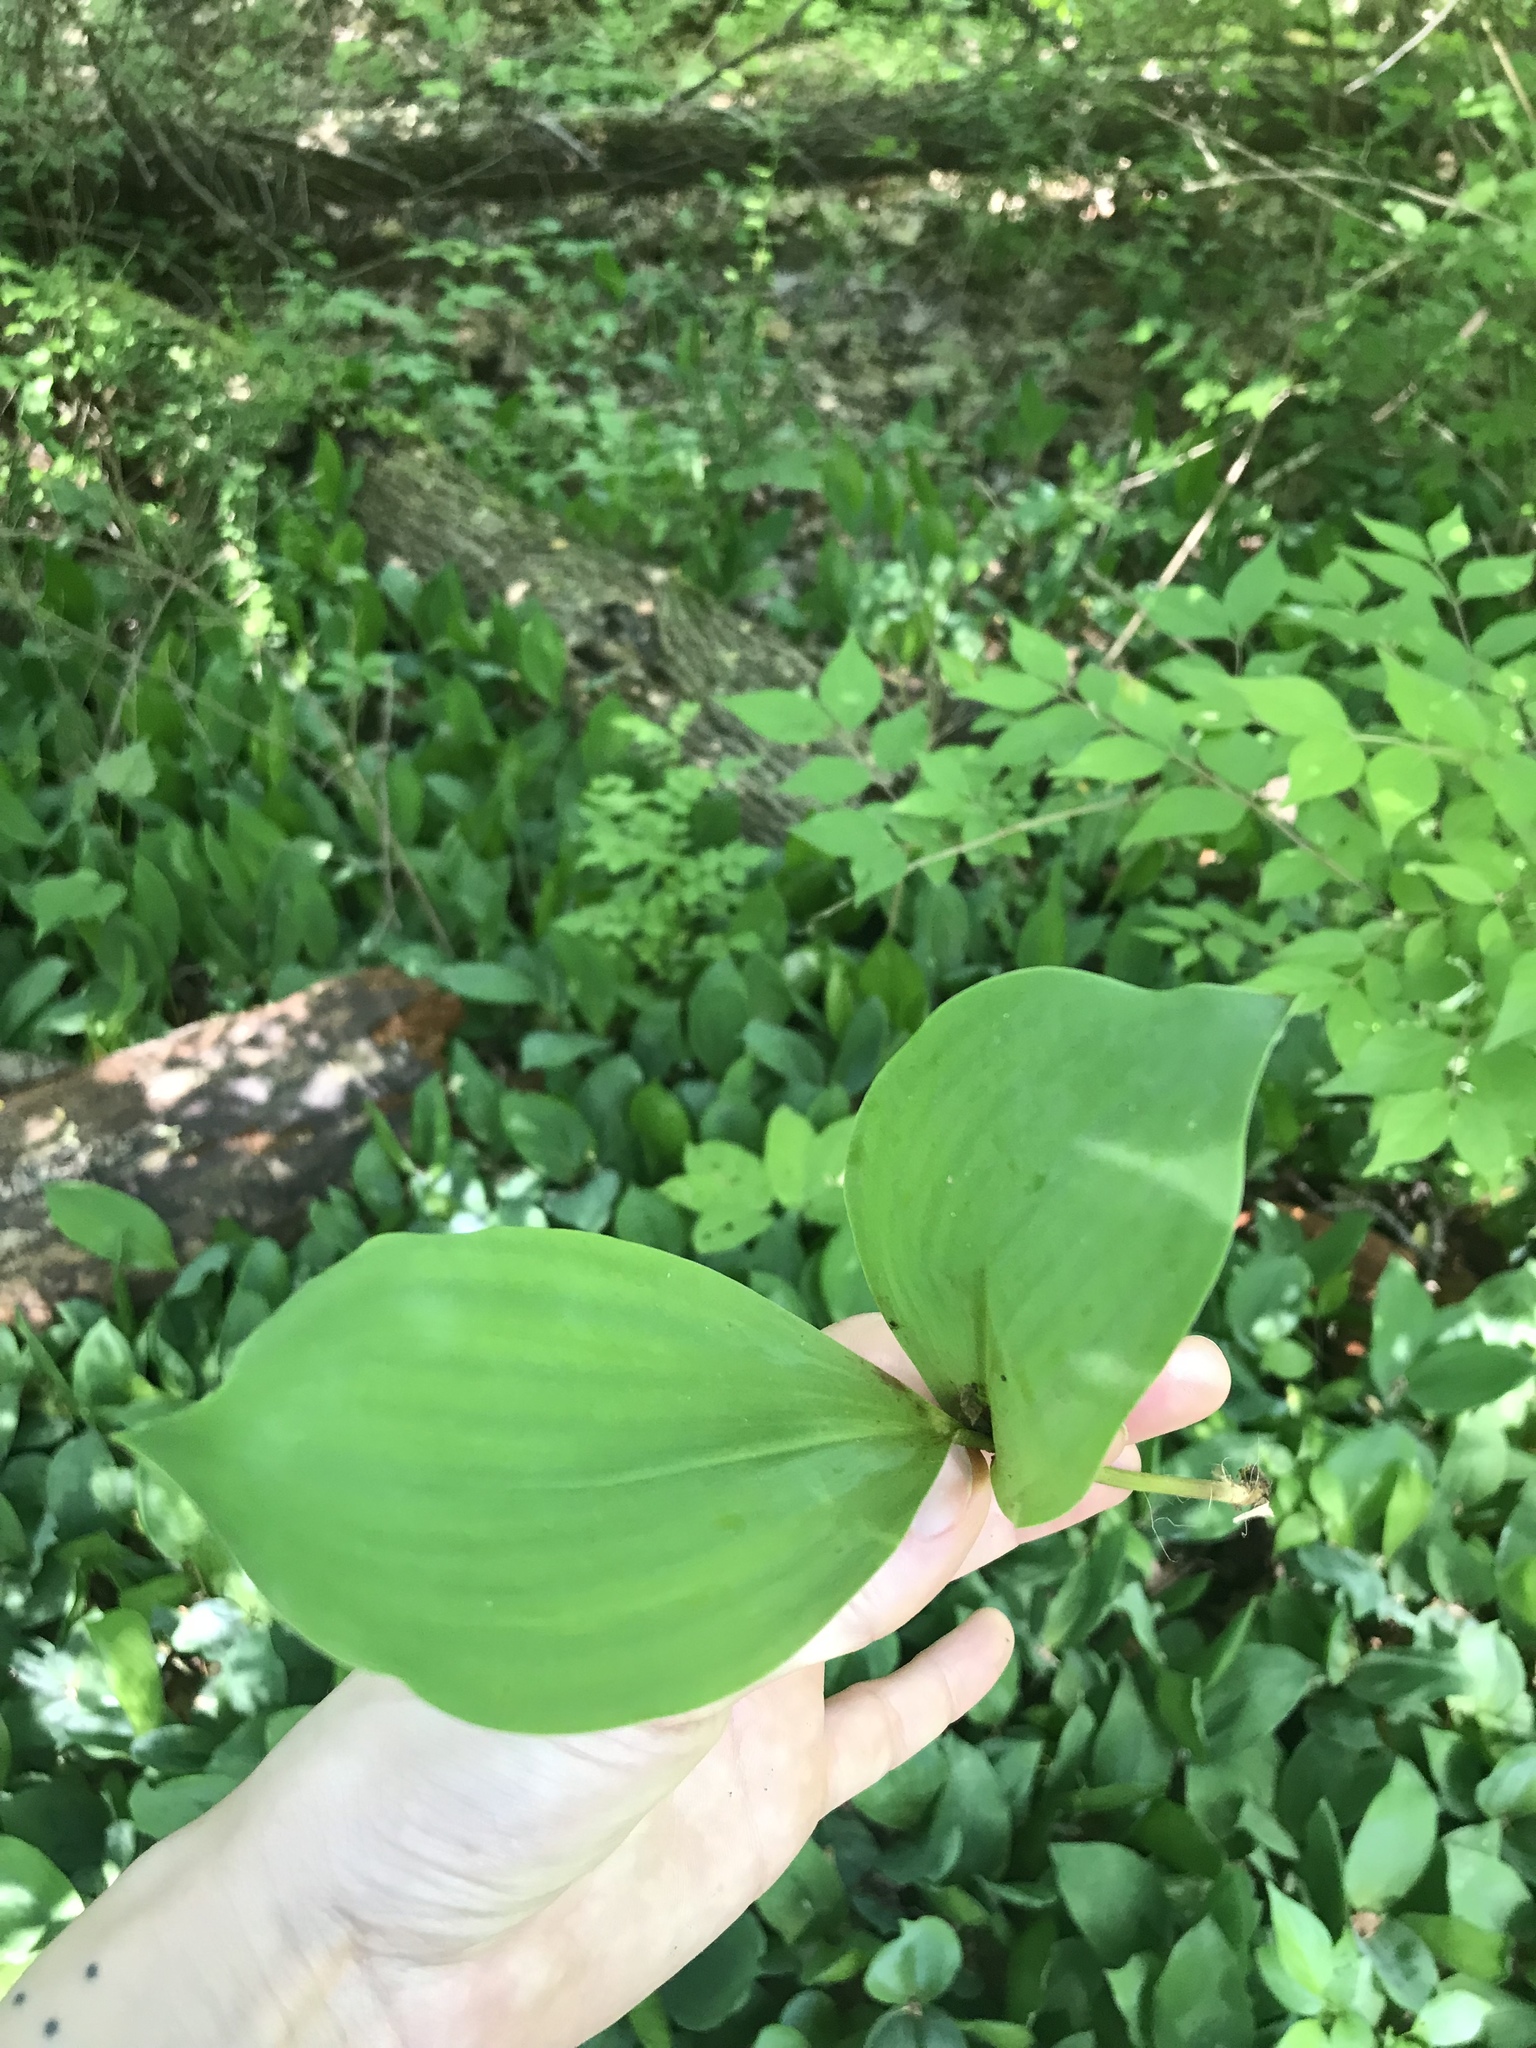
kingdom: Plantae
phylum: Tracheophyta
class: Liliopsida
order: Asparagales
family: Asparagaceae
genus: Convallaria
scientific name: Convallaria majalis
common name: Lily-of-the-valley
